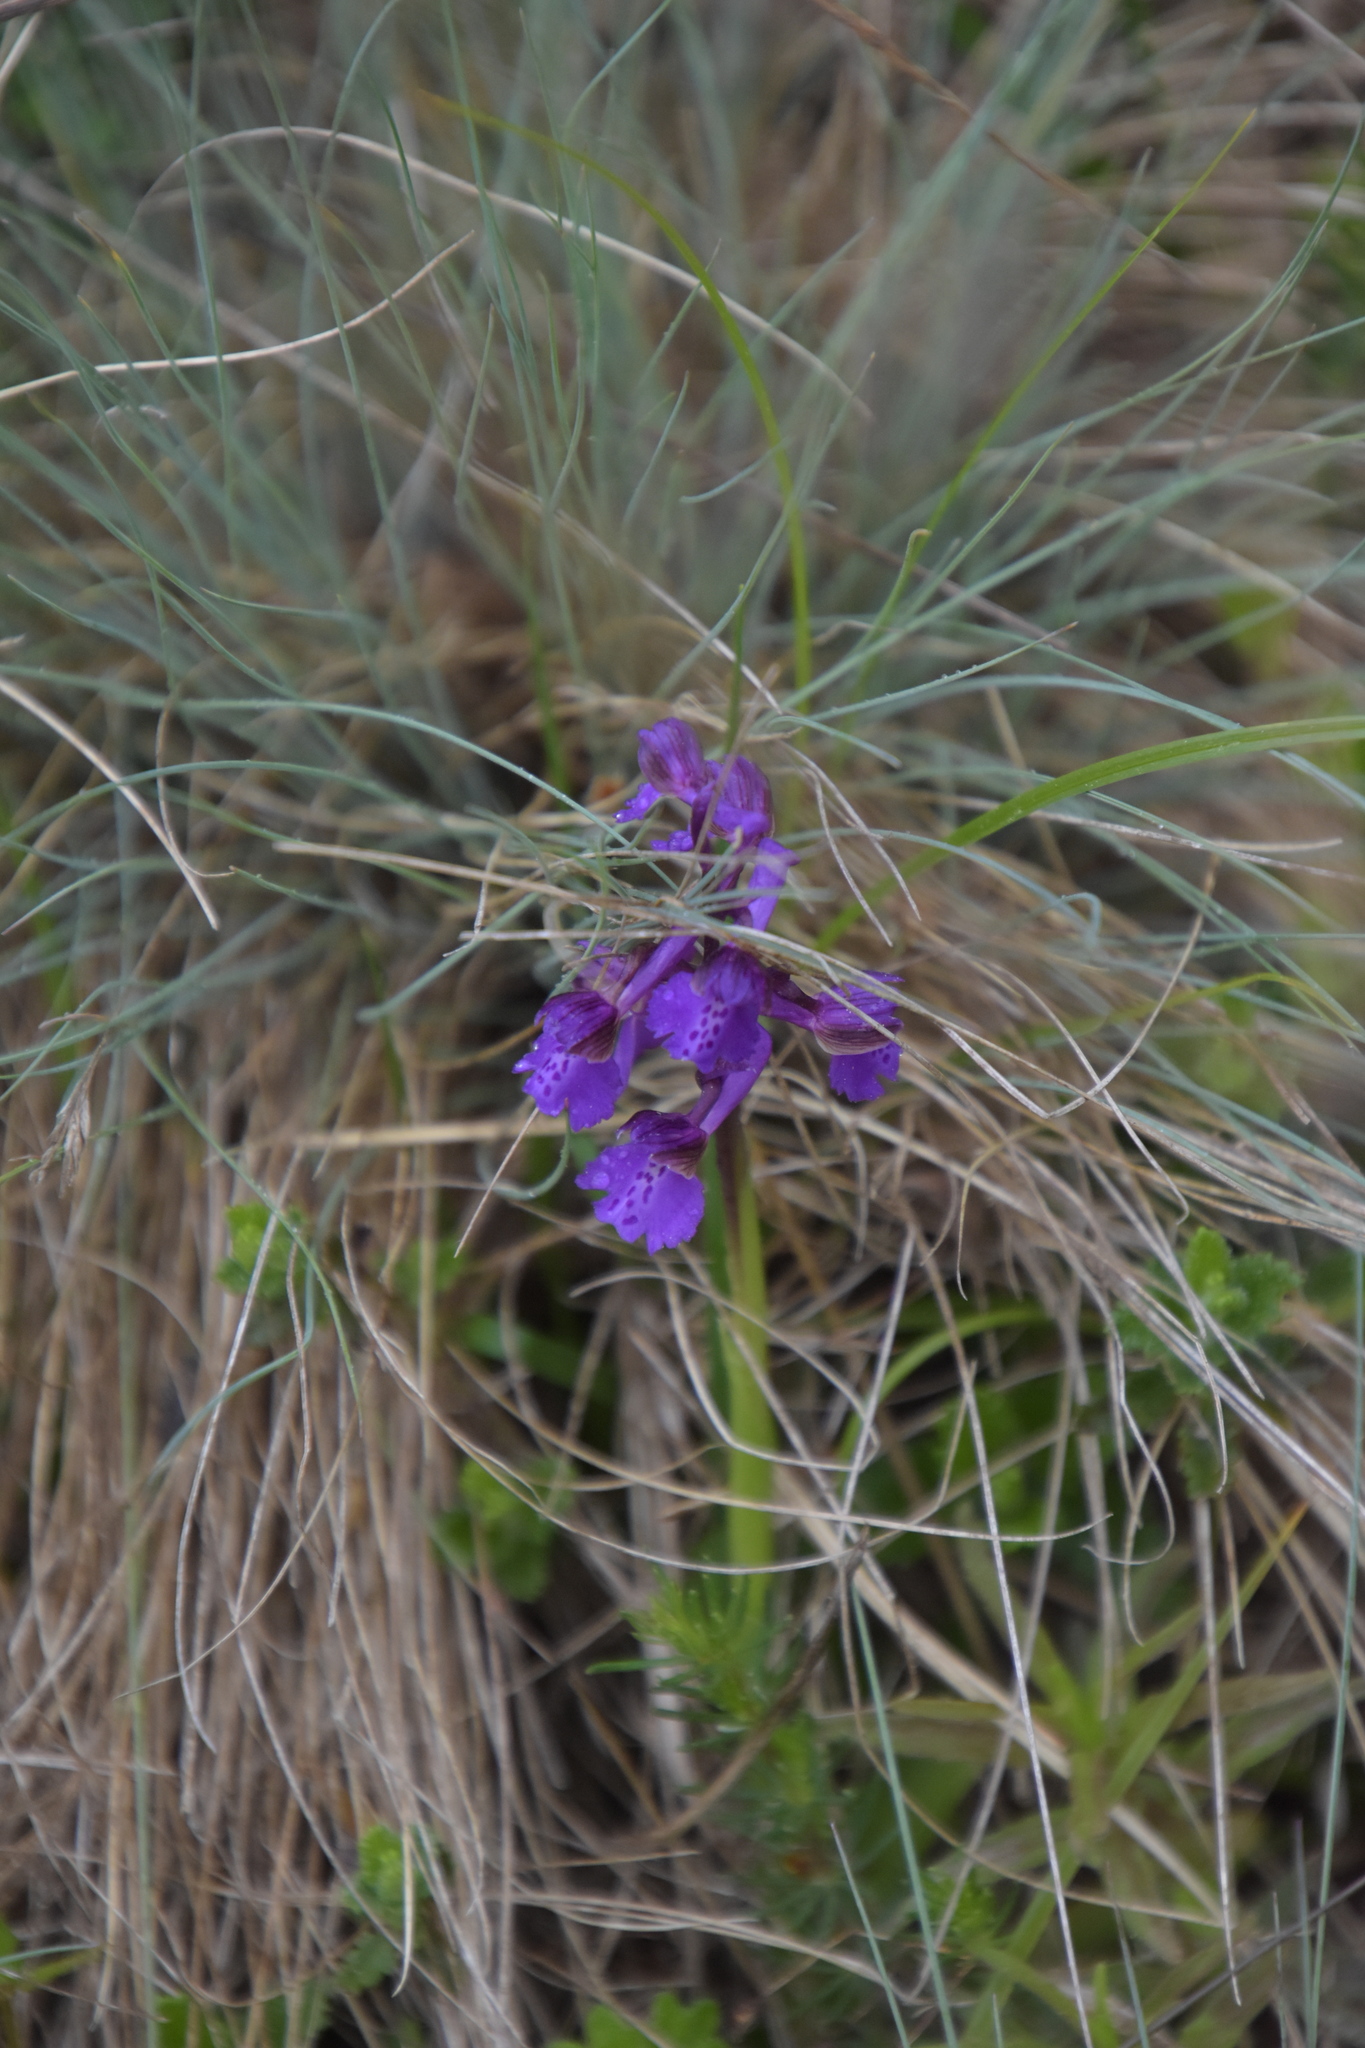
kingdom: Plantae
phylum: Tracheophyta
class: Liliopsida
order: Asparagales
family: Orchidaceae
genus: Anacamptis
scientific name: Anacamptis morio
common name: Green-winged orchid
